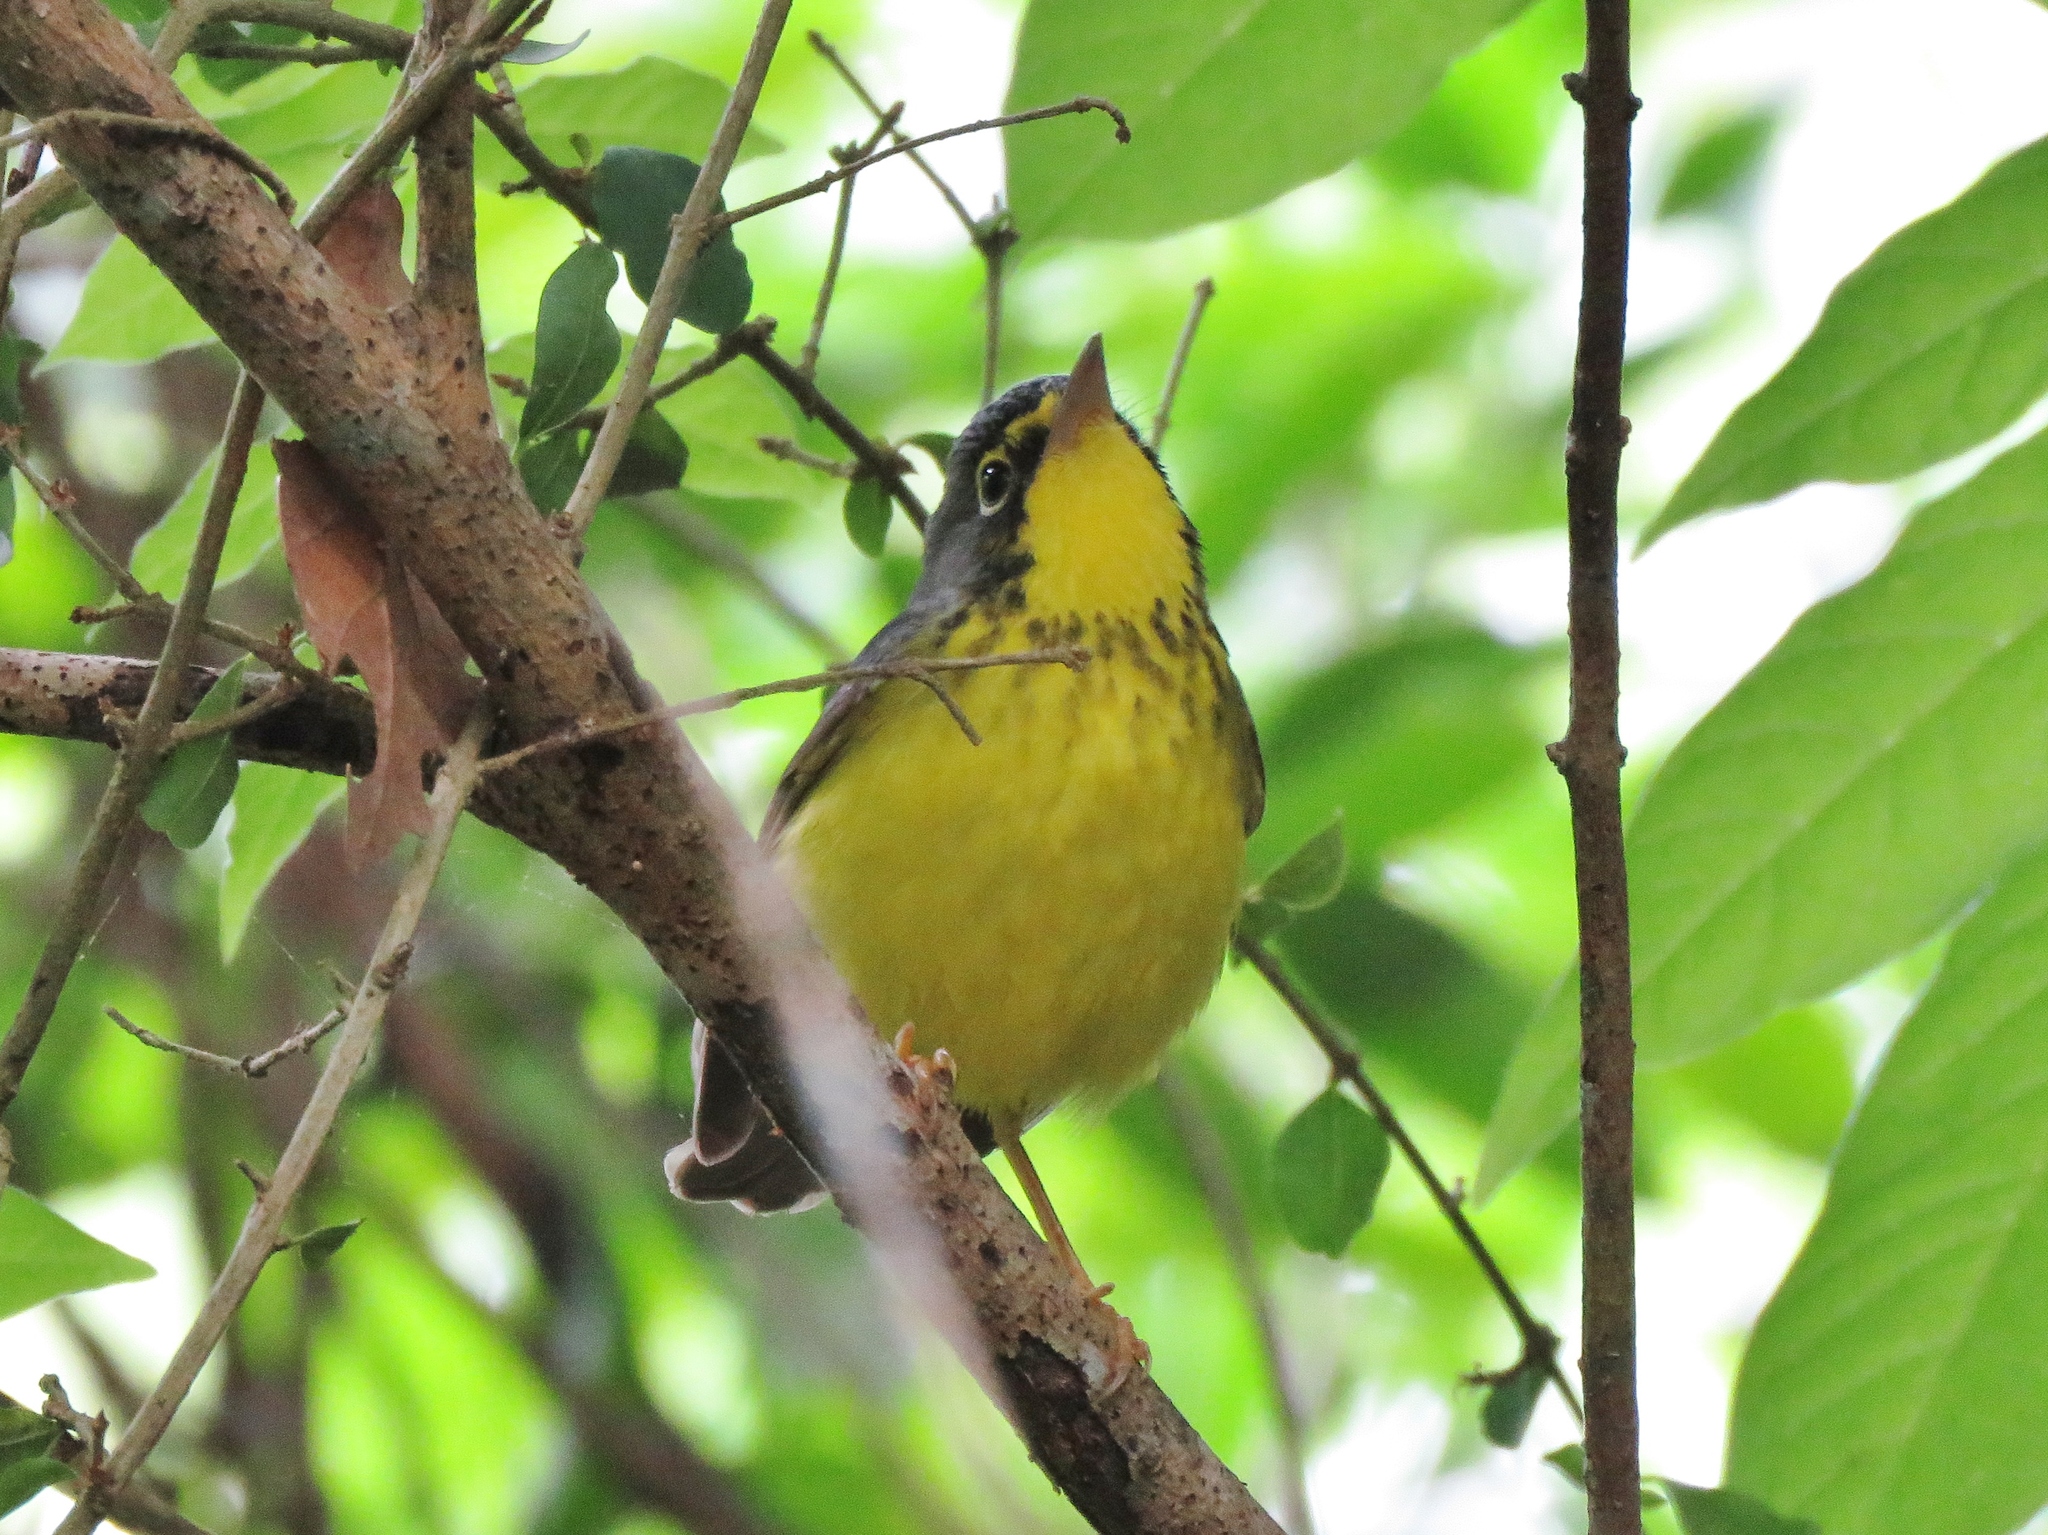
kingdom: Animalia
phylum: Chordata
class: Aves
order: Passeriformes
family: Parulidae
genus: Cardellina
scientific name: Cardellina canadensis
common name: Canada warbler
